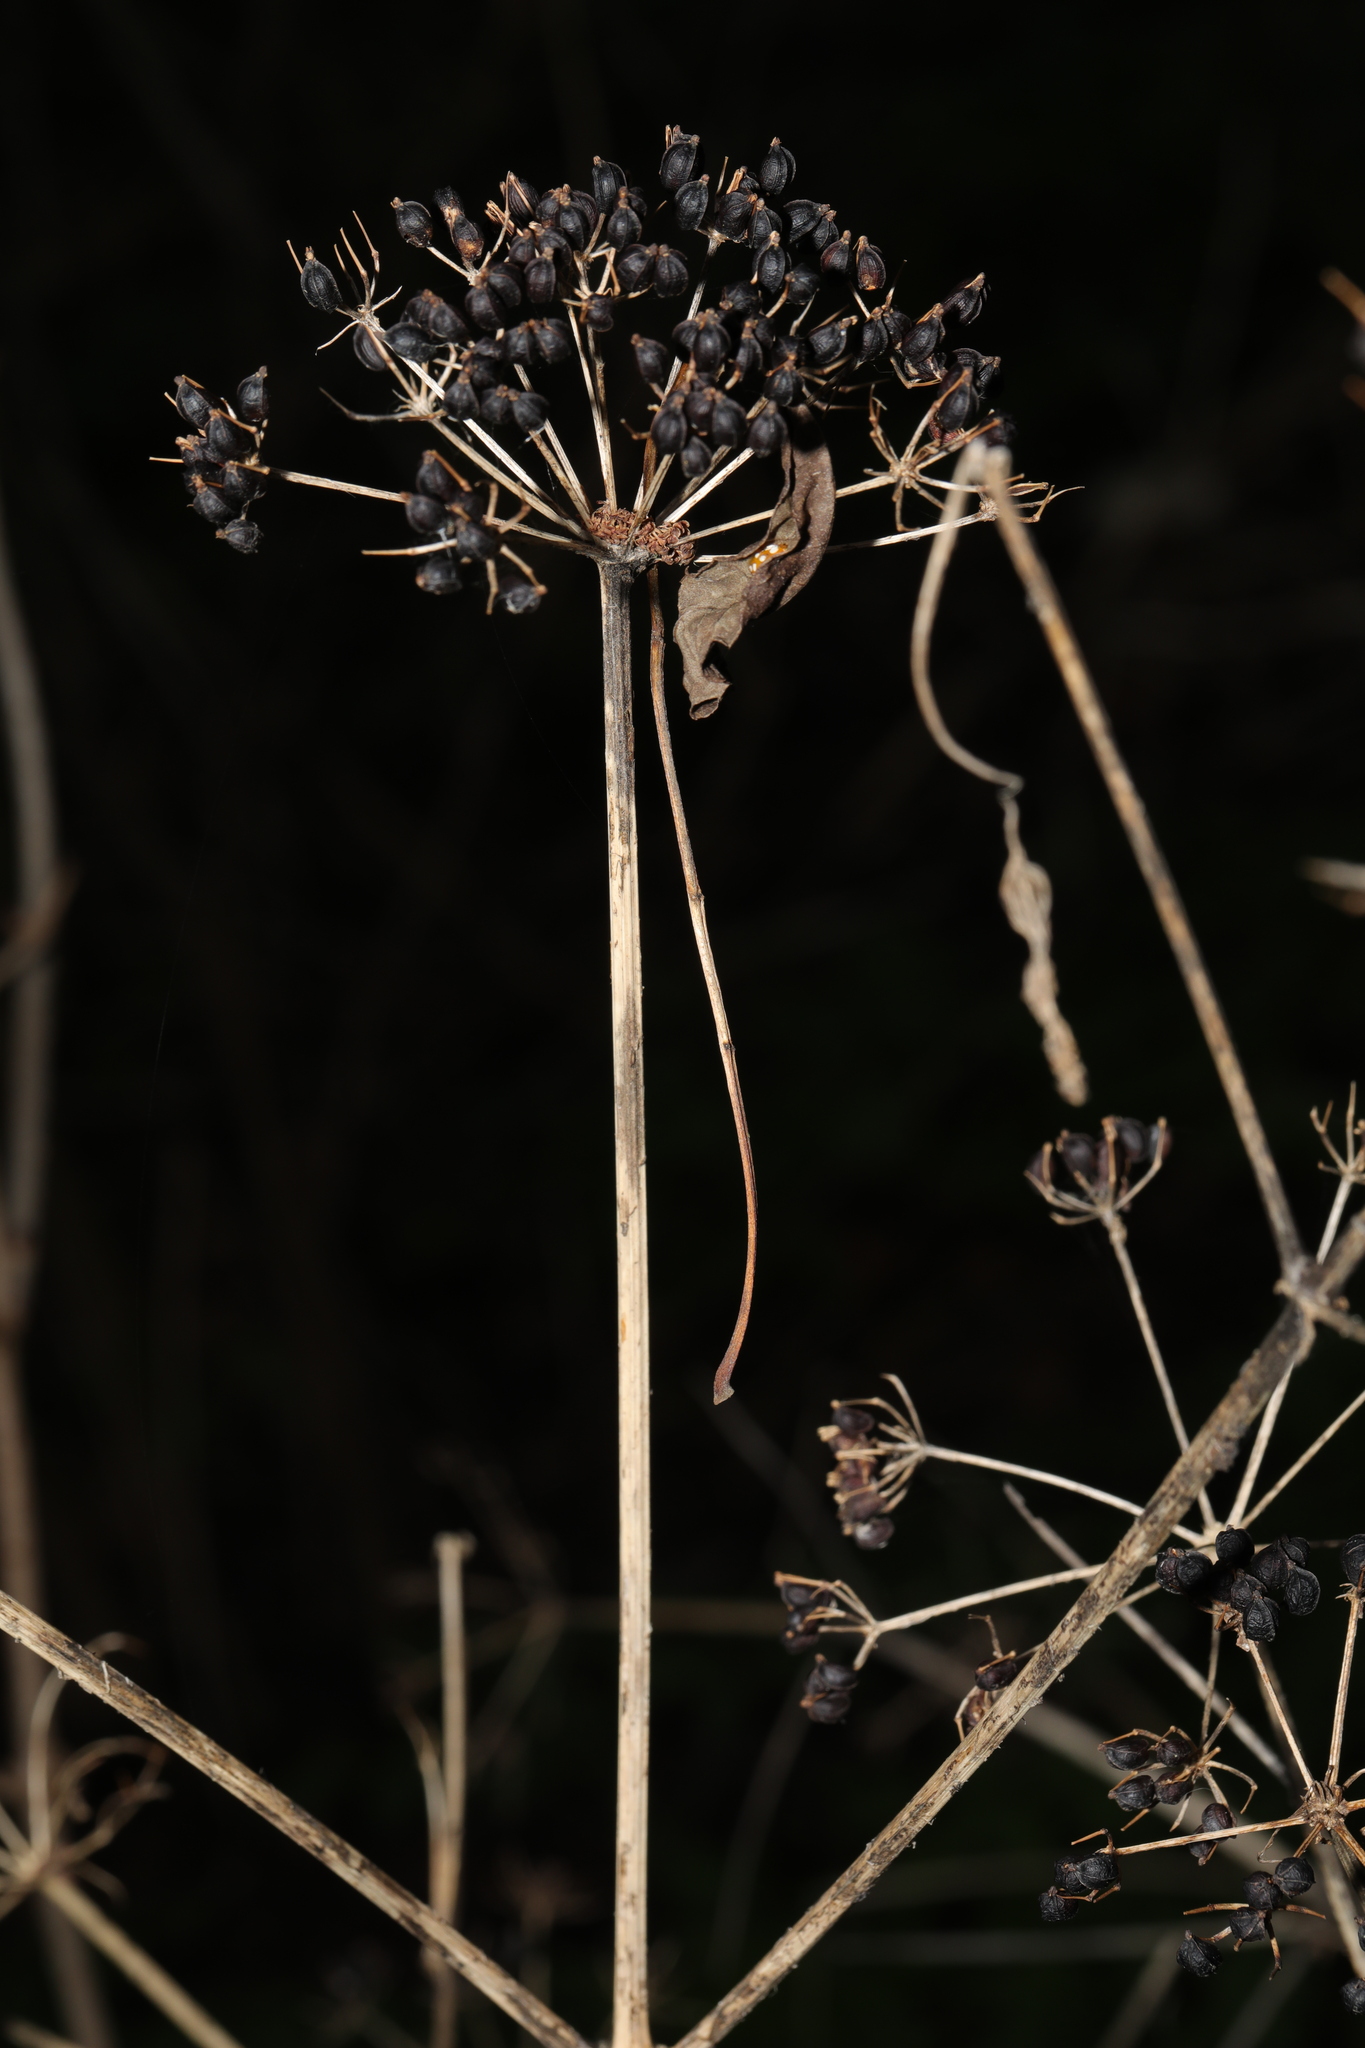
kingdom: Plantae
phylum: Tracheophyta
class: Magnoliopsida
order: Apiales
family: Apiaceae
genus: Smyrnium
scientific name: Smyrnium olusatrum
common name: Alexanders
